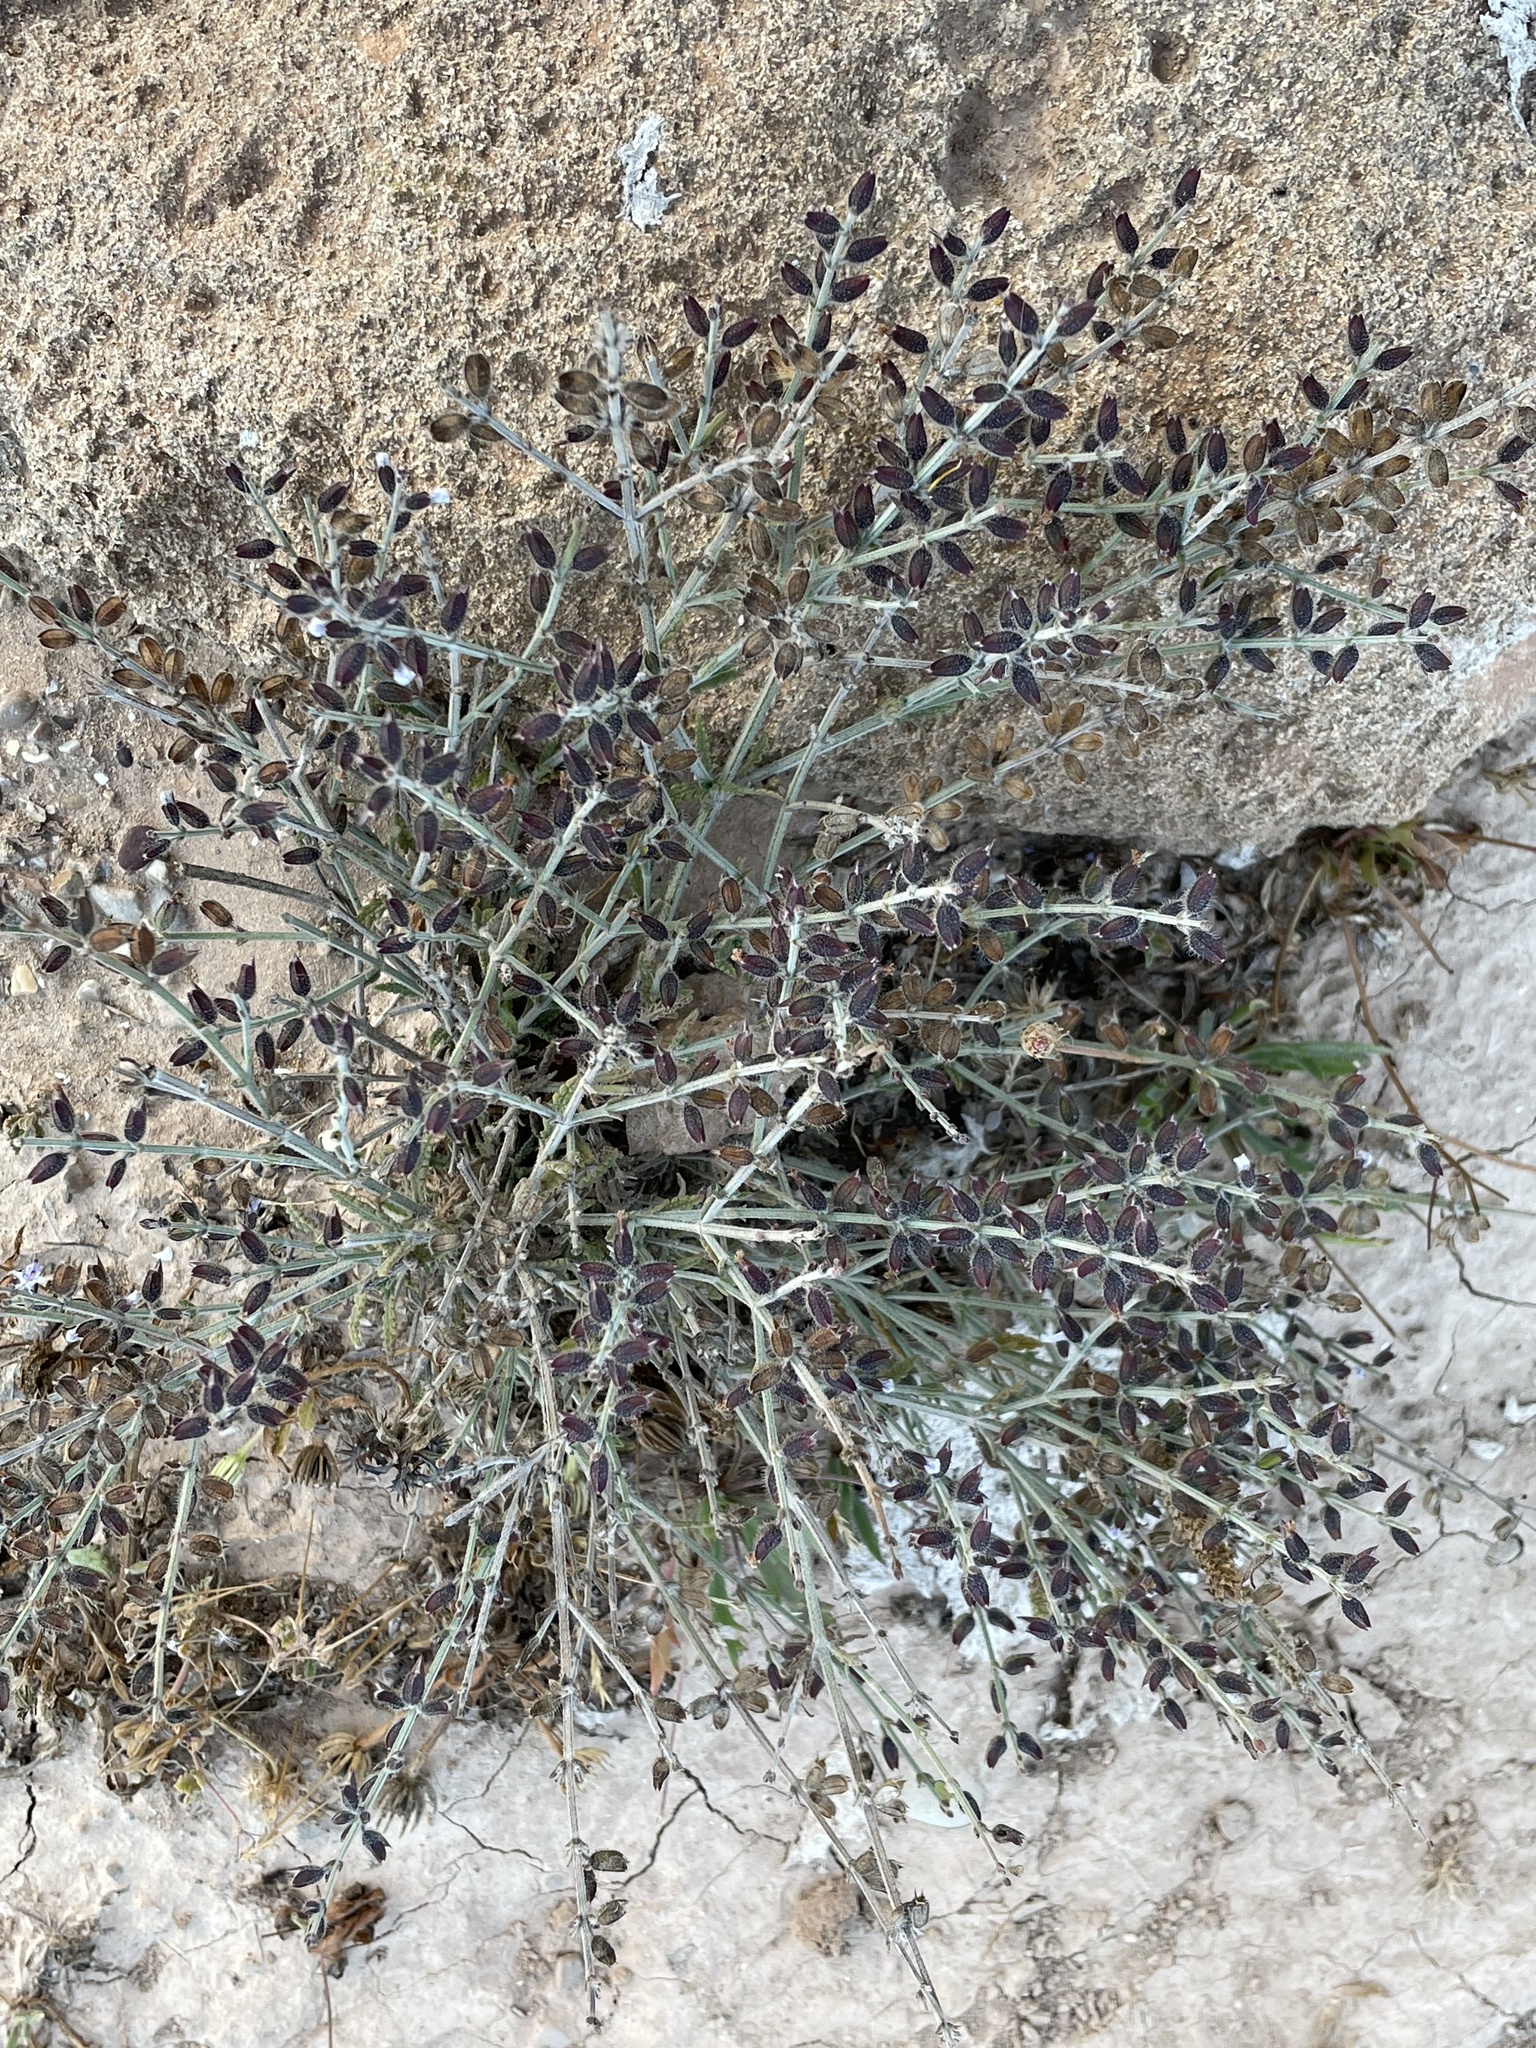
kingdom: Plantae
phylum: Tracheophyta
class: Magnoliopsida
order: Lamiales
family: Lamiaceae
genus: Salvia
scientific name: Salvia aegyptiaca
